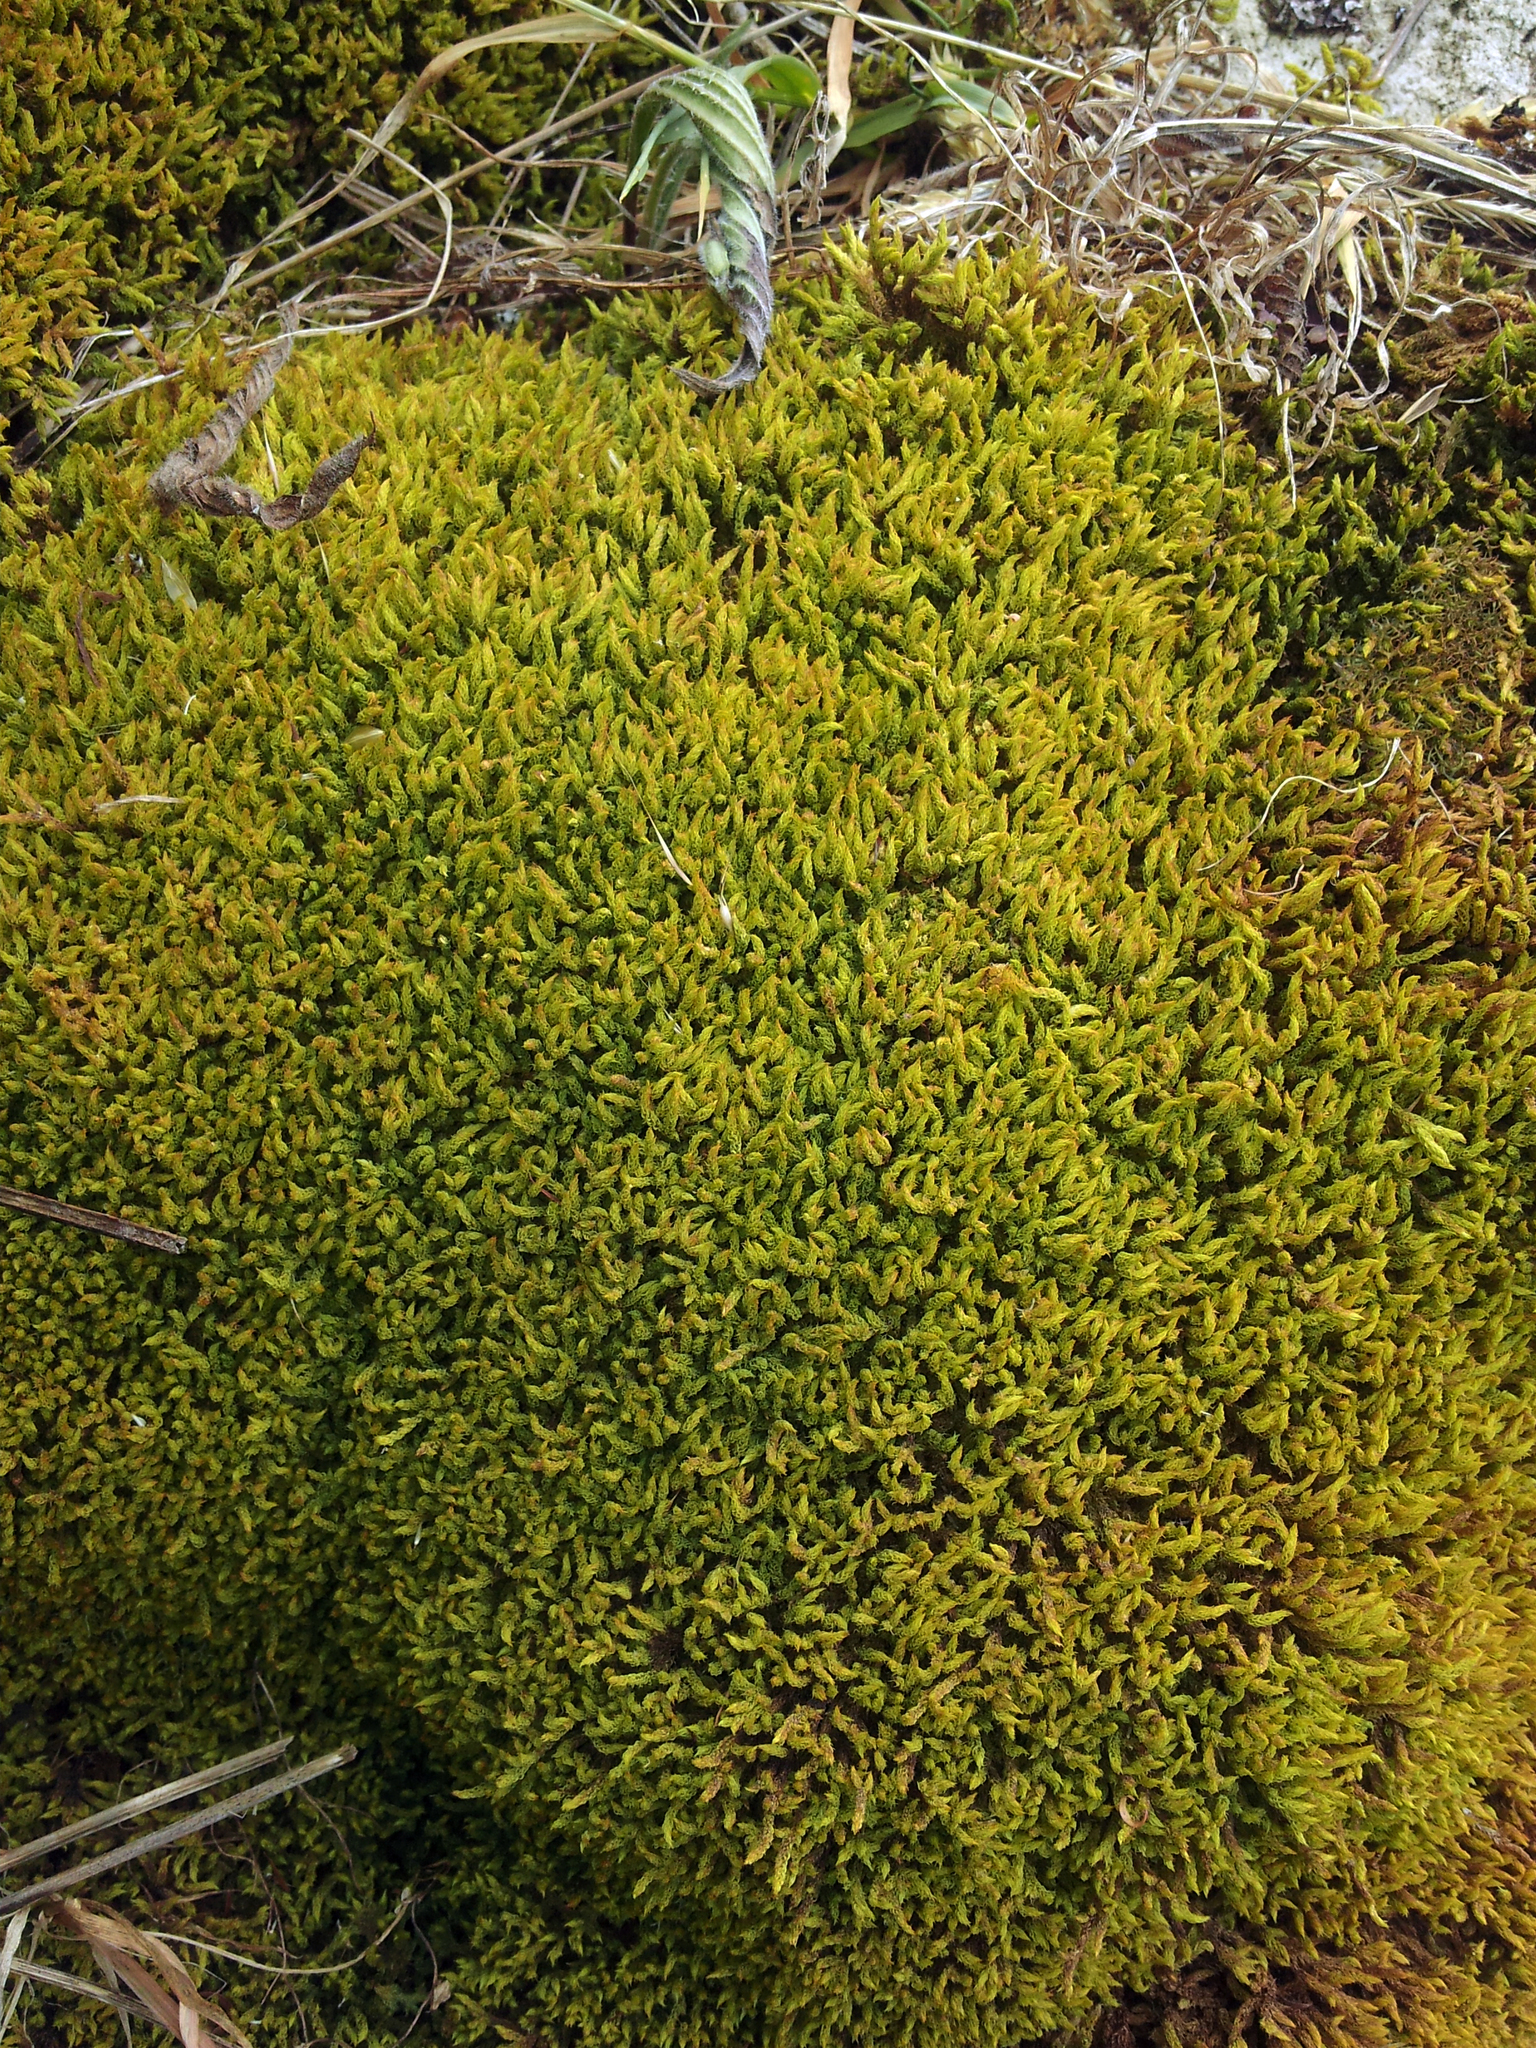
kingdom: Plantae
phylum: Bryophyta
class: Bryopsida
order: Dicranales
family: Dicranaceae
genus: Sclerodontium
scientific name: Sclerodontium pallidum
